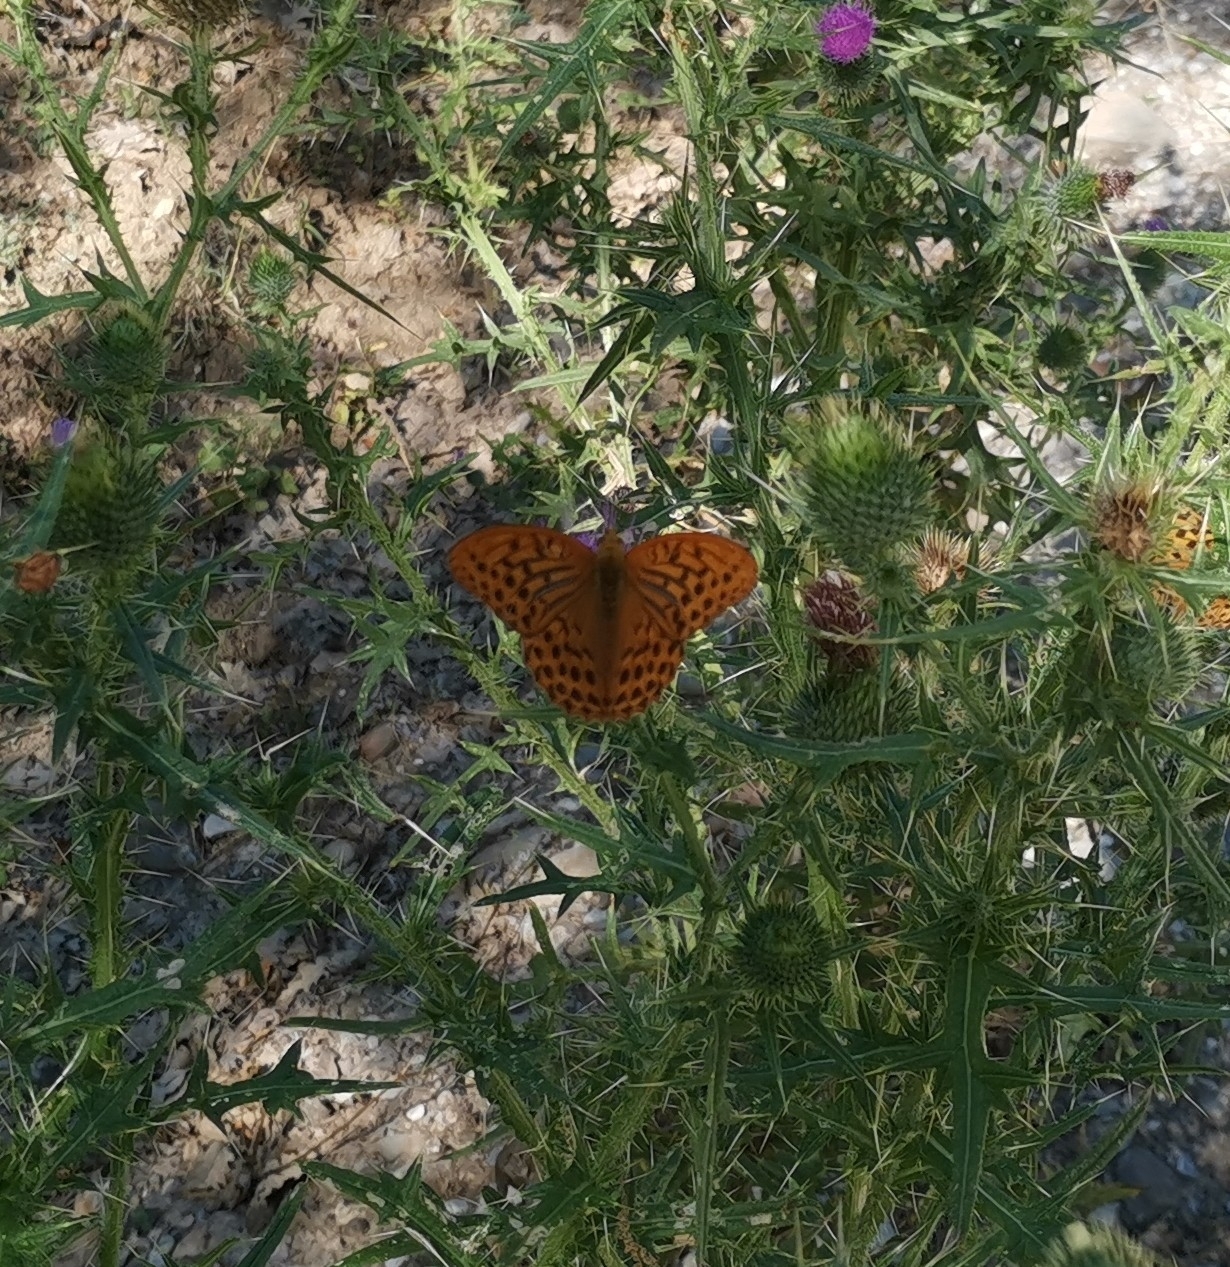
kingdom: Animalia
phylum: Arthropoda
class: Insecta
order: Lepidoptera
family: Nymphalidae
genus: Argynnis
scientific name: Argynnis paphia
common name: Silver-washed fritillary
